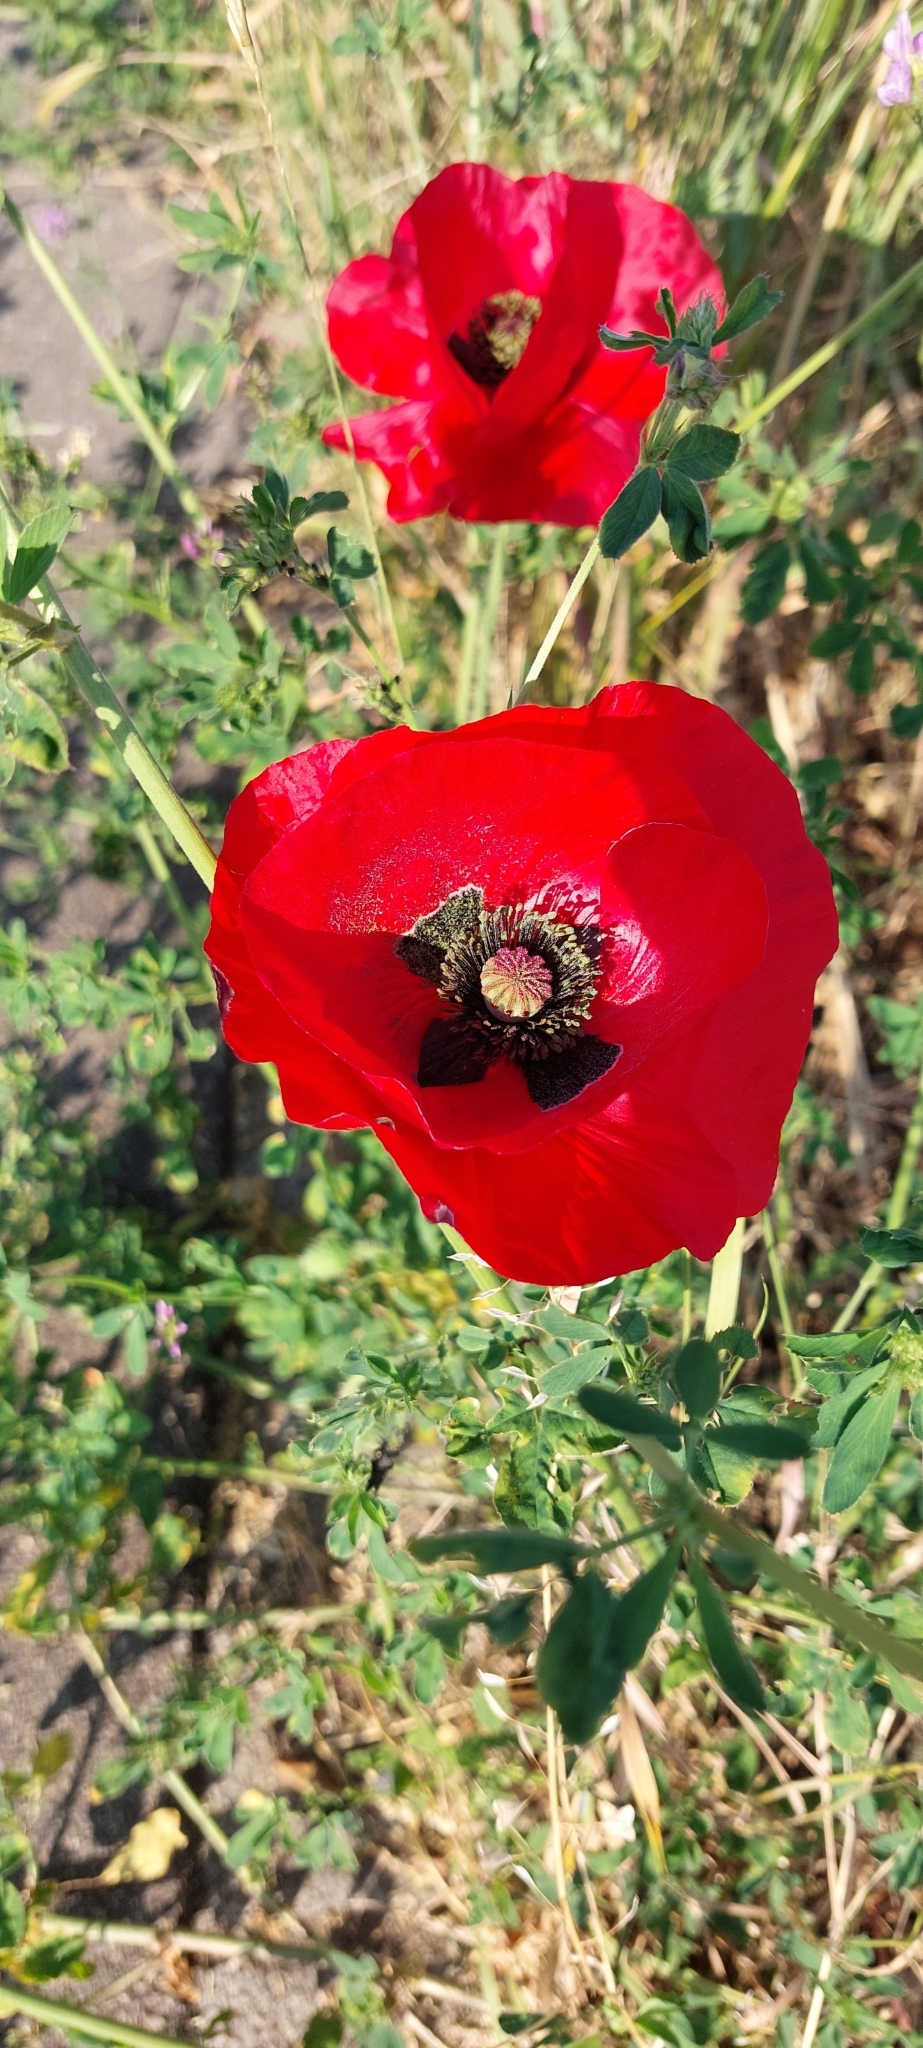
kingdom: Plantae
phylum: Tracheophyta
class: Magnoliopsida
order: Ranunculales
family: Papaveraceae
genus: Papaver
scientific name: Papaver rhoeas
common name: Corn poppy
